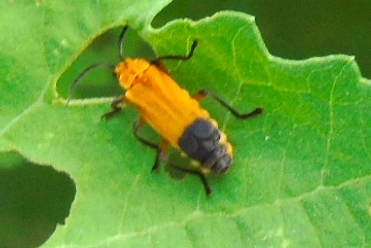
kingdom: Animalia
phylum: Arthropoda
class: Insecta
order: Coleoptera
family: Cantharidae
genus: Daiphron
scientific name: Daiphron proteum
